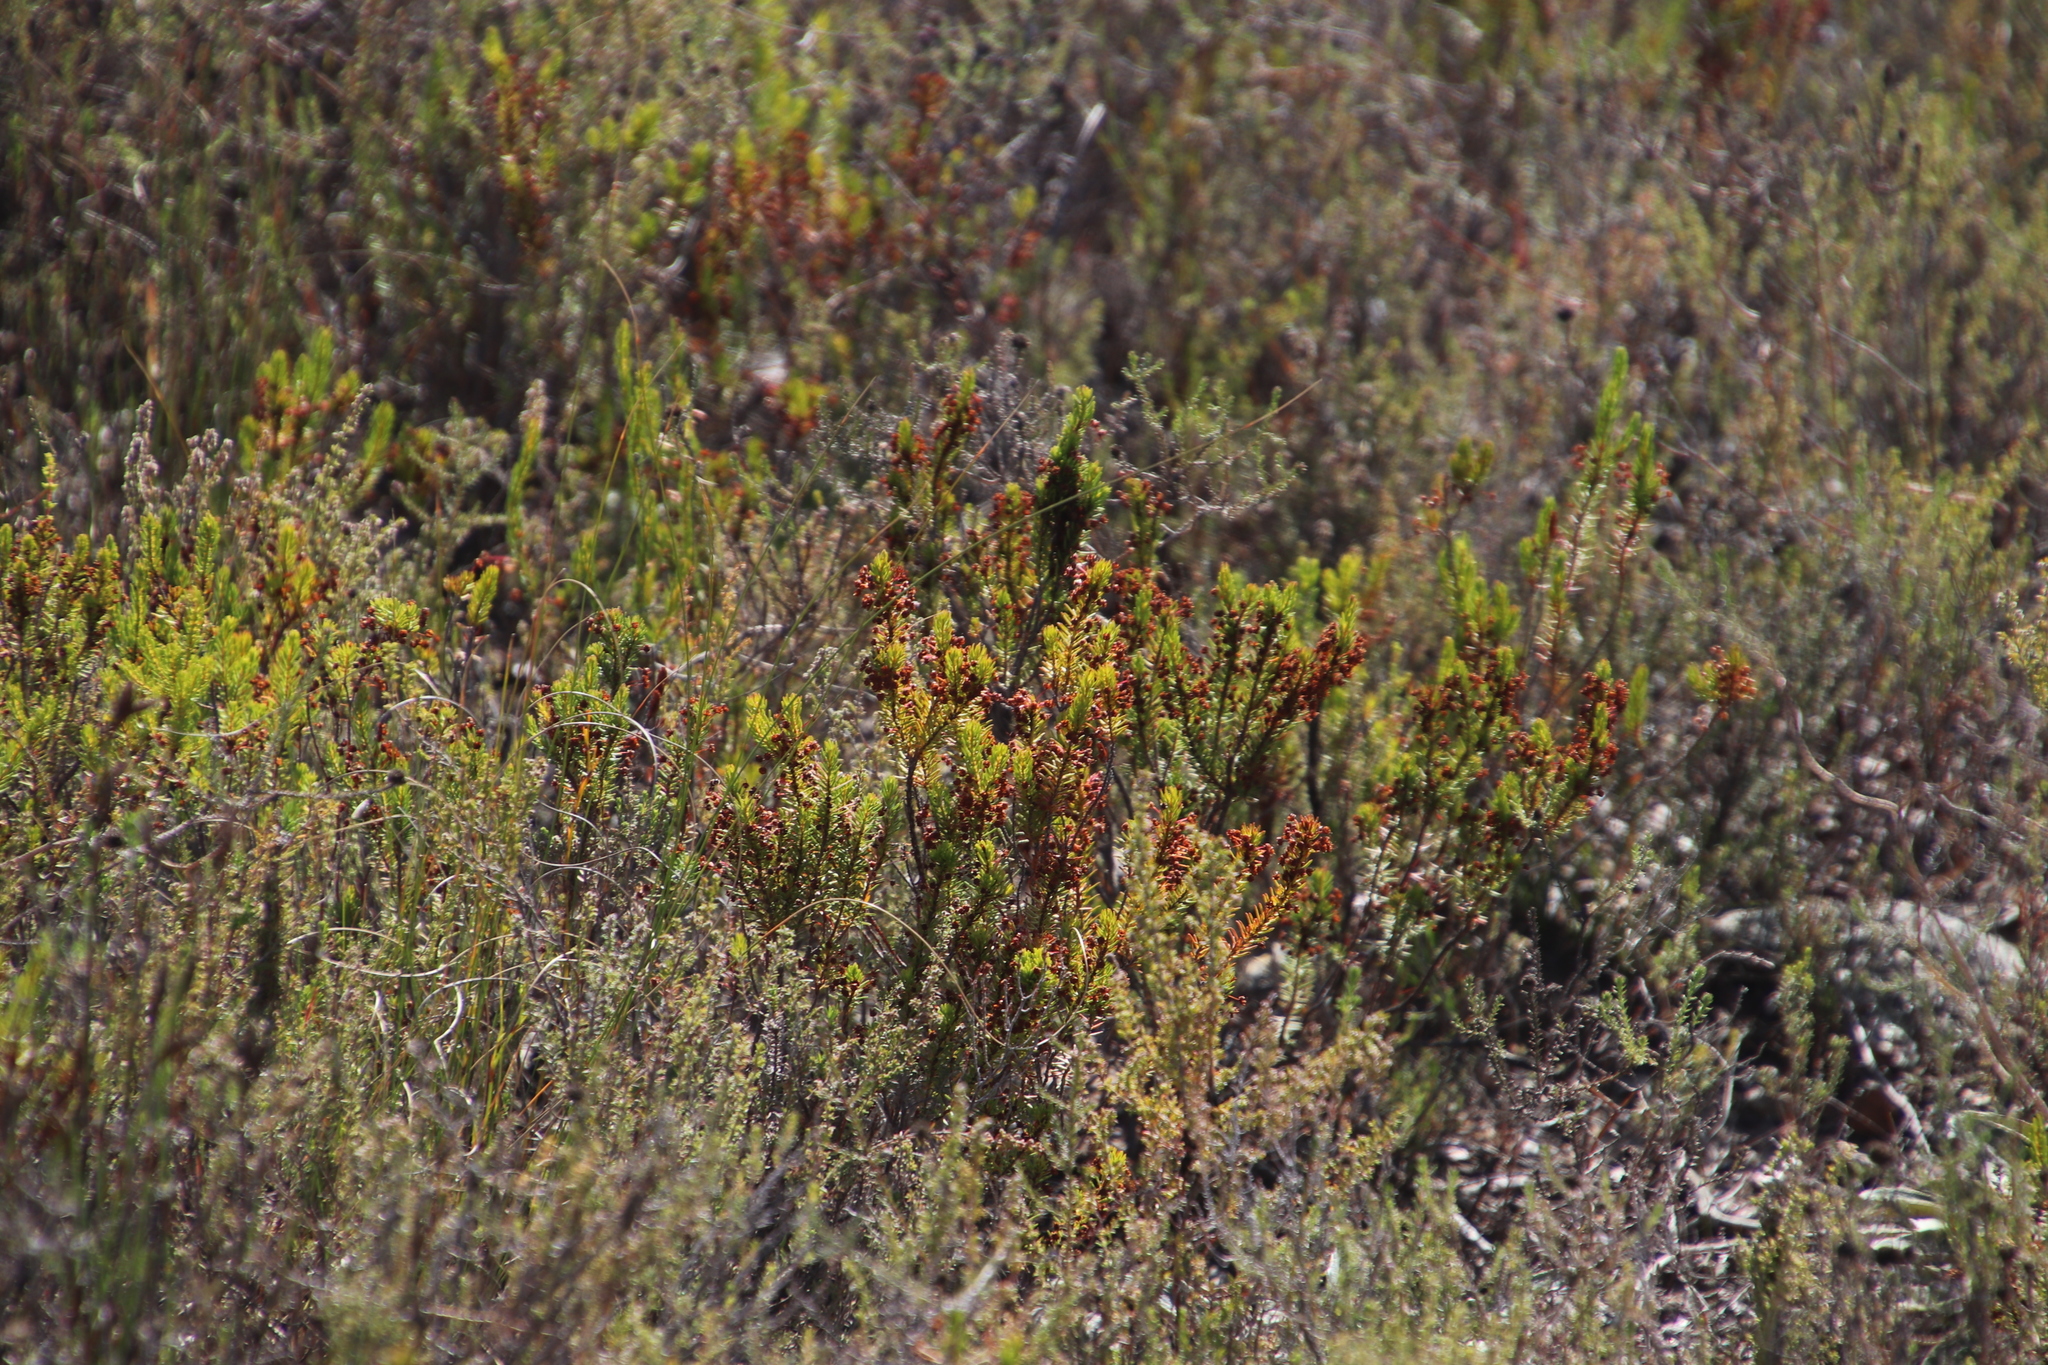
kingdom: Plantae
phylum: Tracheophyta
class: Magnoliopsida
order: Ericales
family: Ericaceae
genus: Erica
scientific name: Erica rubiginosa
